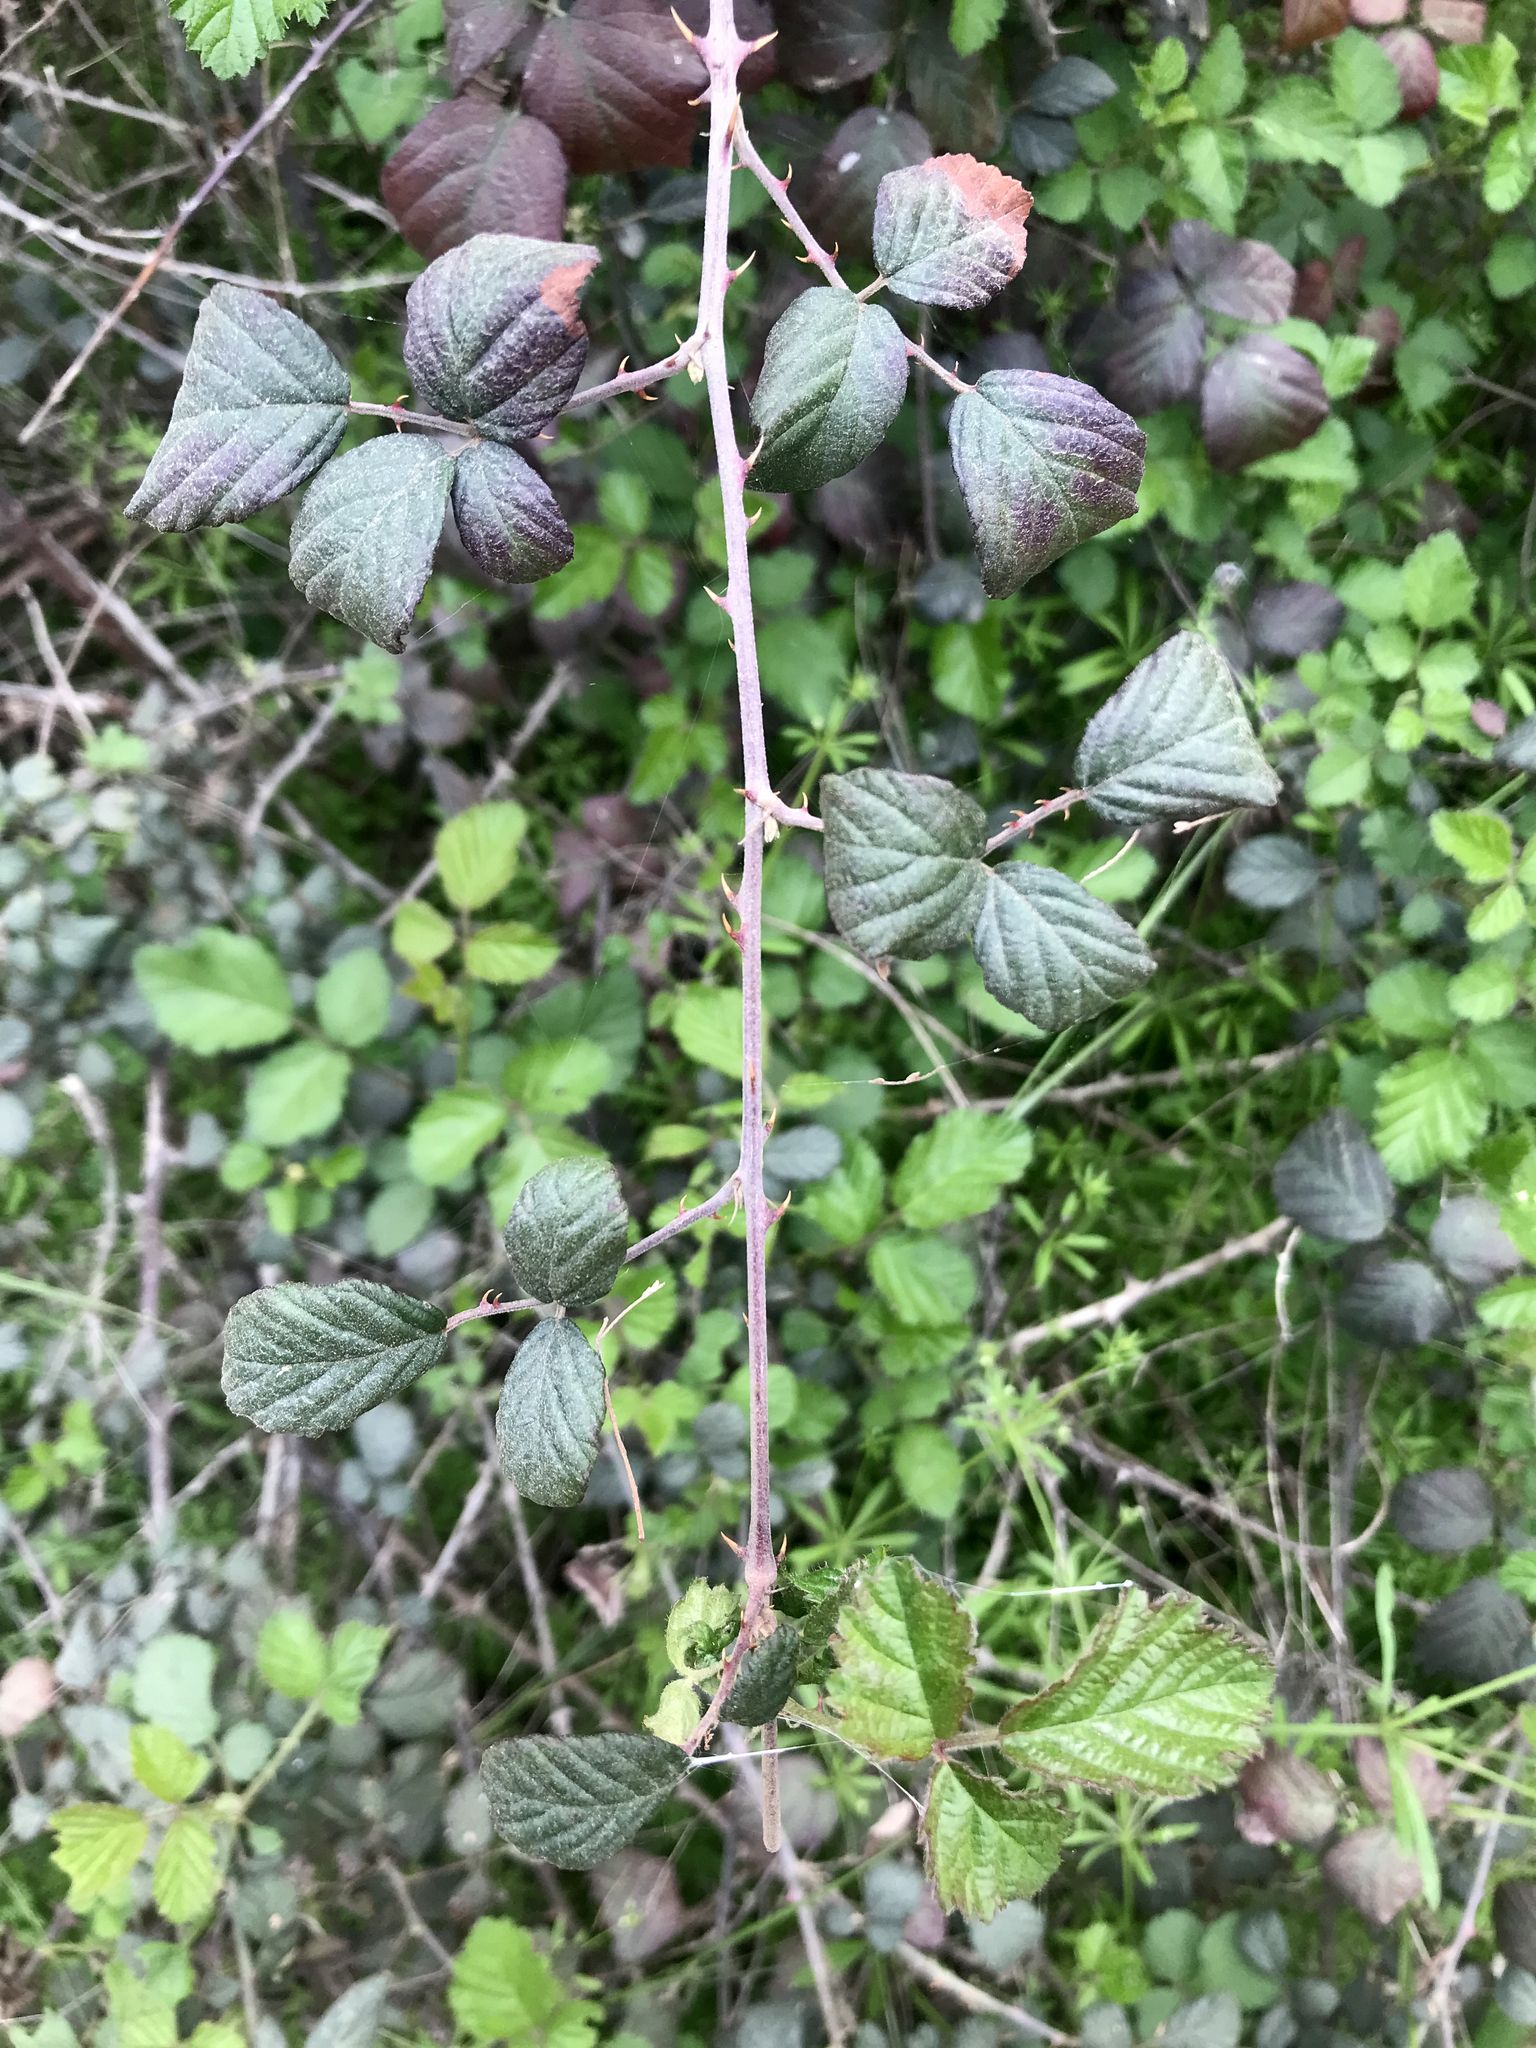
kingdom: Plantae
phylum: Tracheophyta
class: Magnoliopsida
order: Rosales
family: Rosaceae
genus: Rubus
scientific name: Rubus ulmifolius
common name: Elmleaf blackberry
